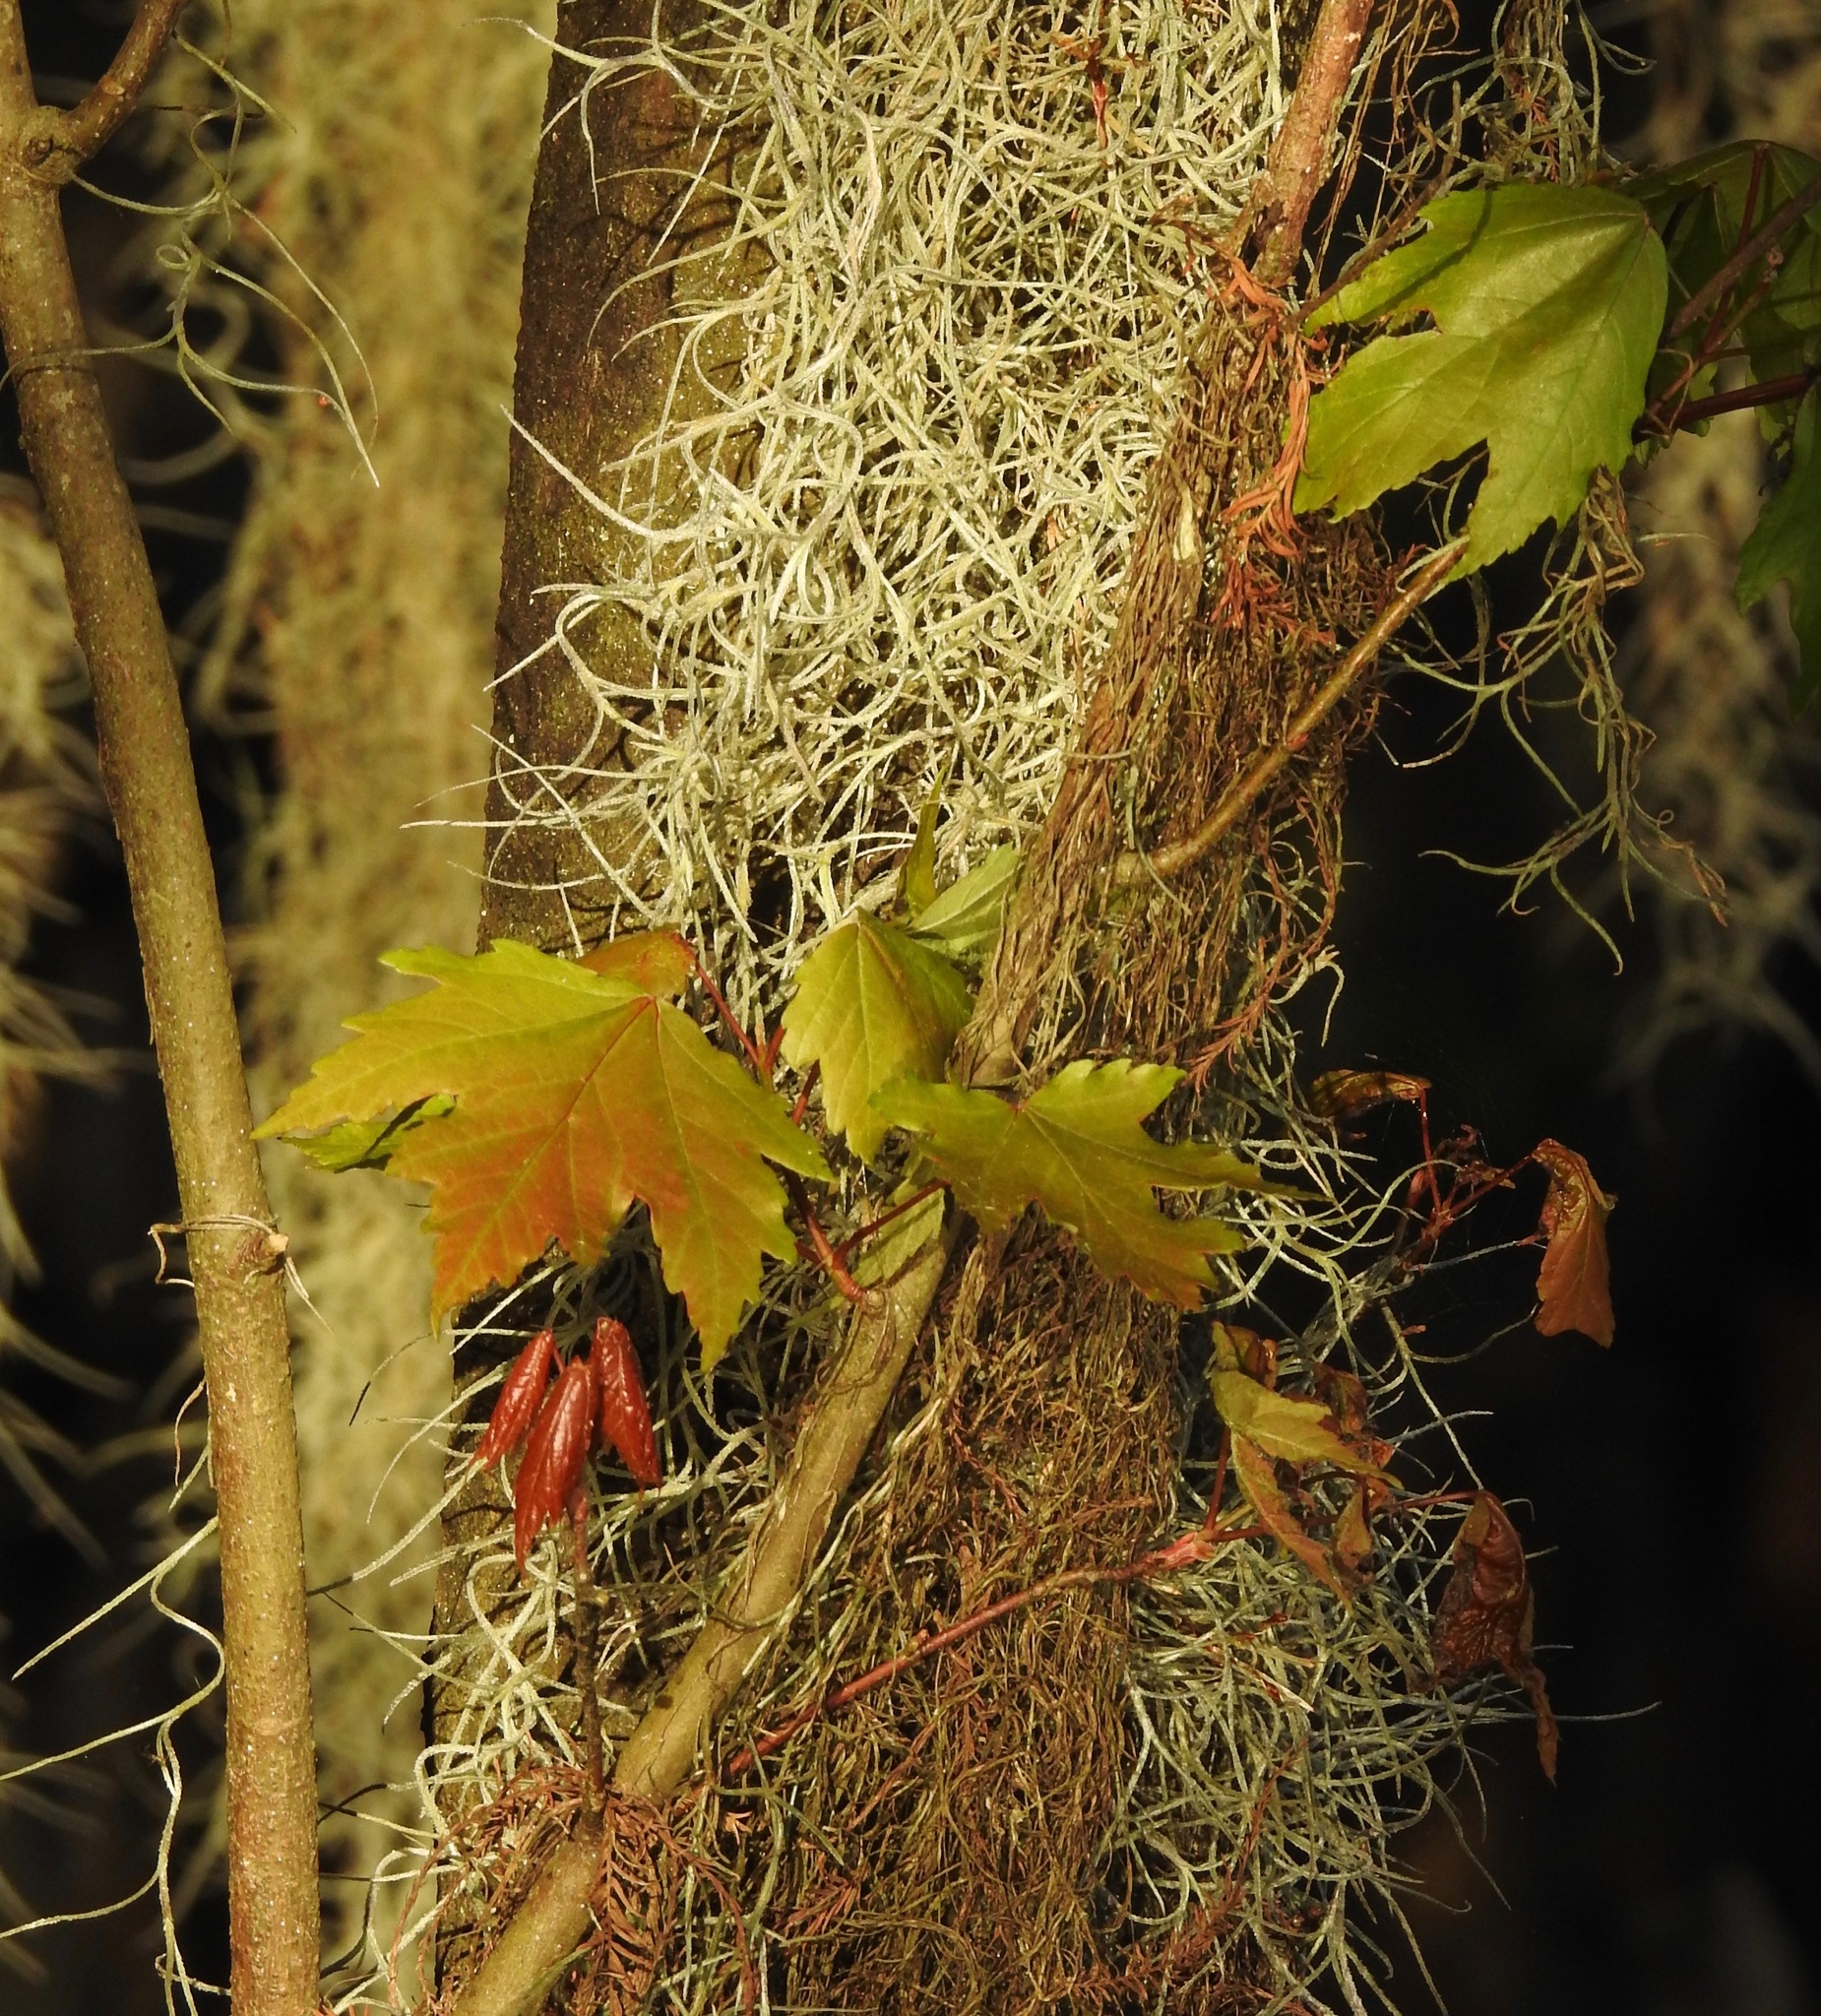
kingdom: Plantae
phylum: Tracheophyta
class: Magnoliopsida
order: Sapindales
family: Sapindaceae
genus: Acer
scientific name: Acer rubrum
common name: Red maple
